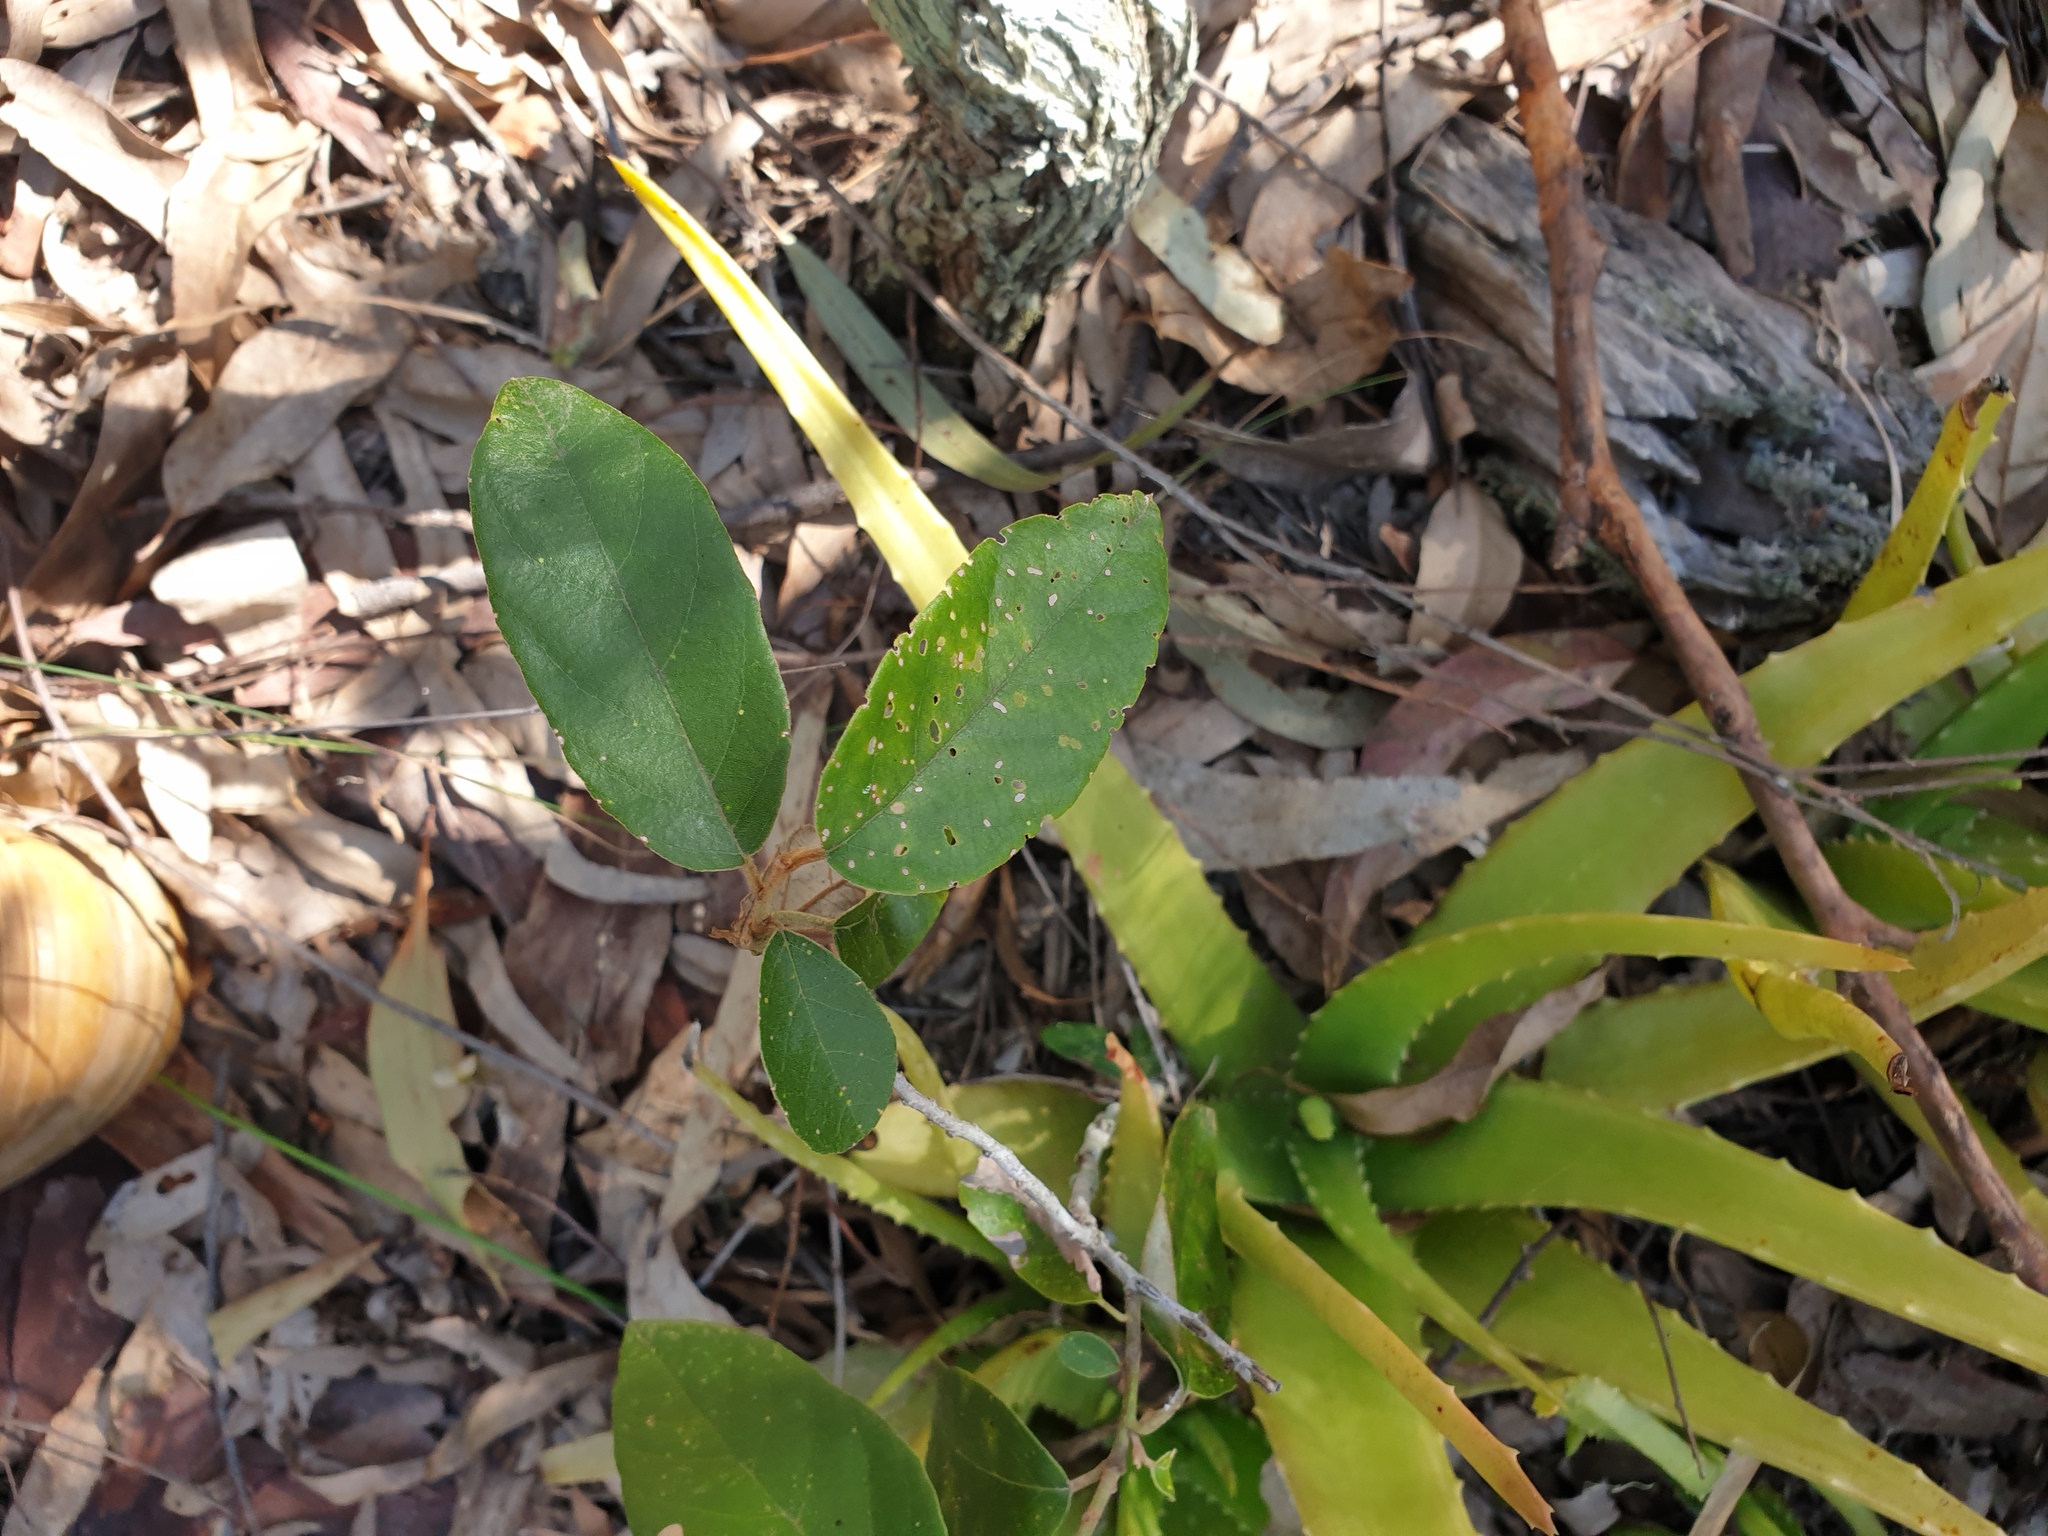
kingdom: Plantae
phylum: Tracheophyta
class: Magnoliopsida
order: Rosales
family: Rhamnaceae
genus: Alphitonia
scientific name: Alphitonia excelsa
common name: Red ash
